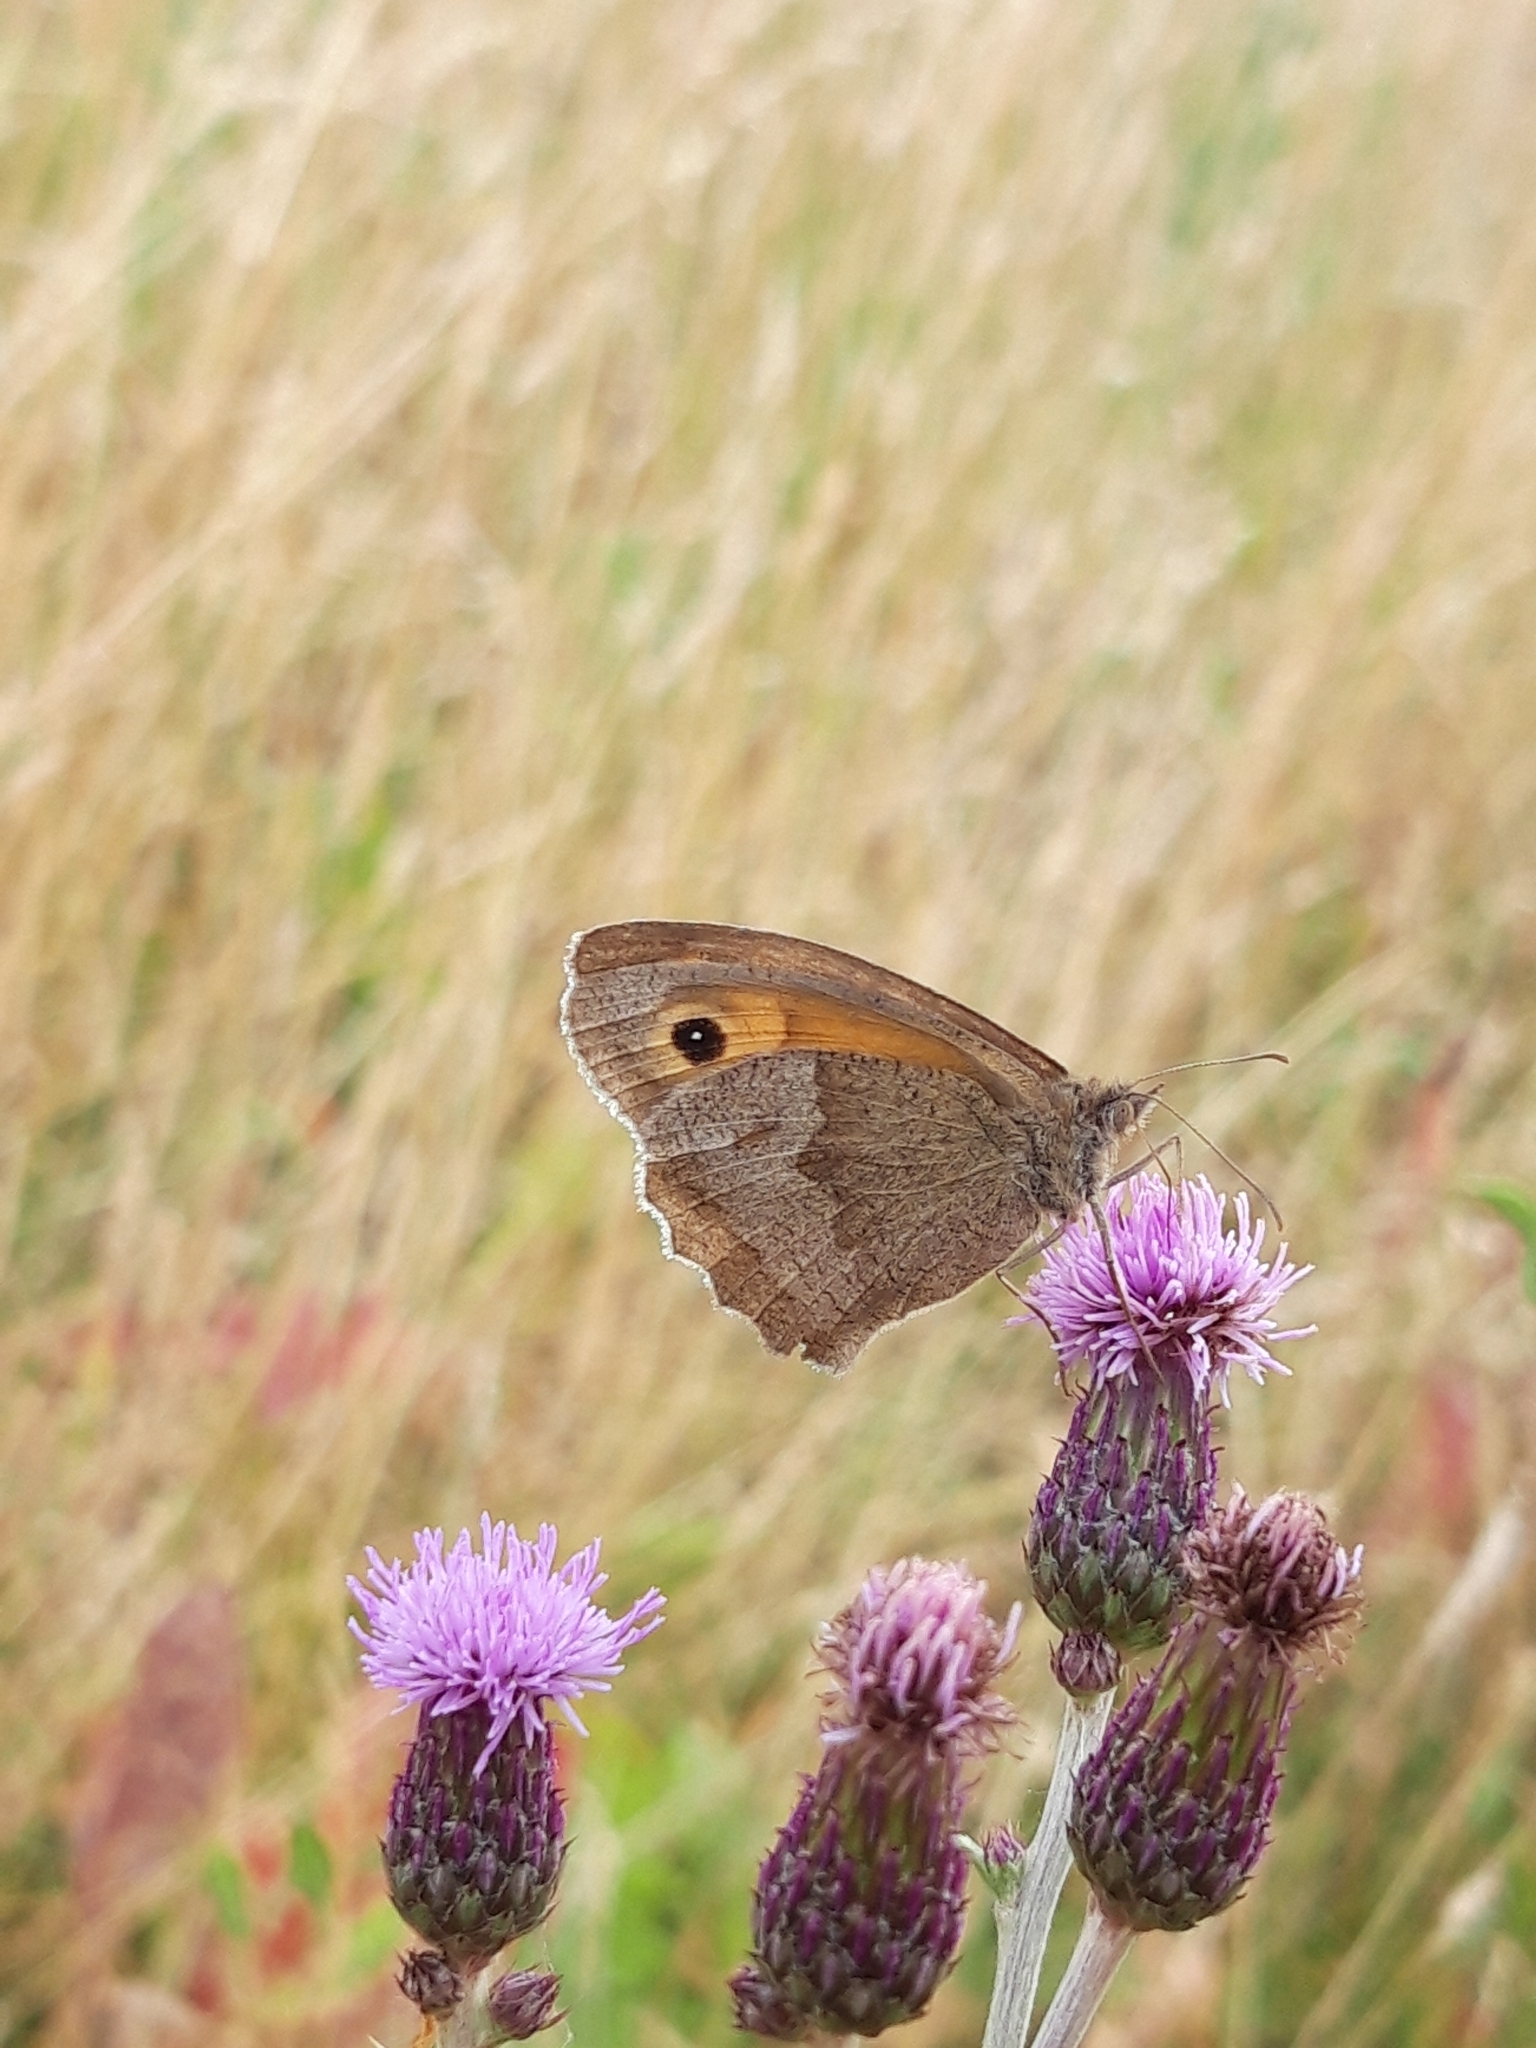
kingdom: Animalia
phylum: Arthropoda
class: Insecta
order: Lepidoptera
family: Nymphalidae
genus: Maniola
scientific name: Maniola jurtina
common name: Meadow brown
